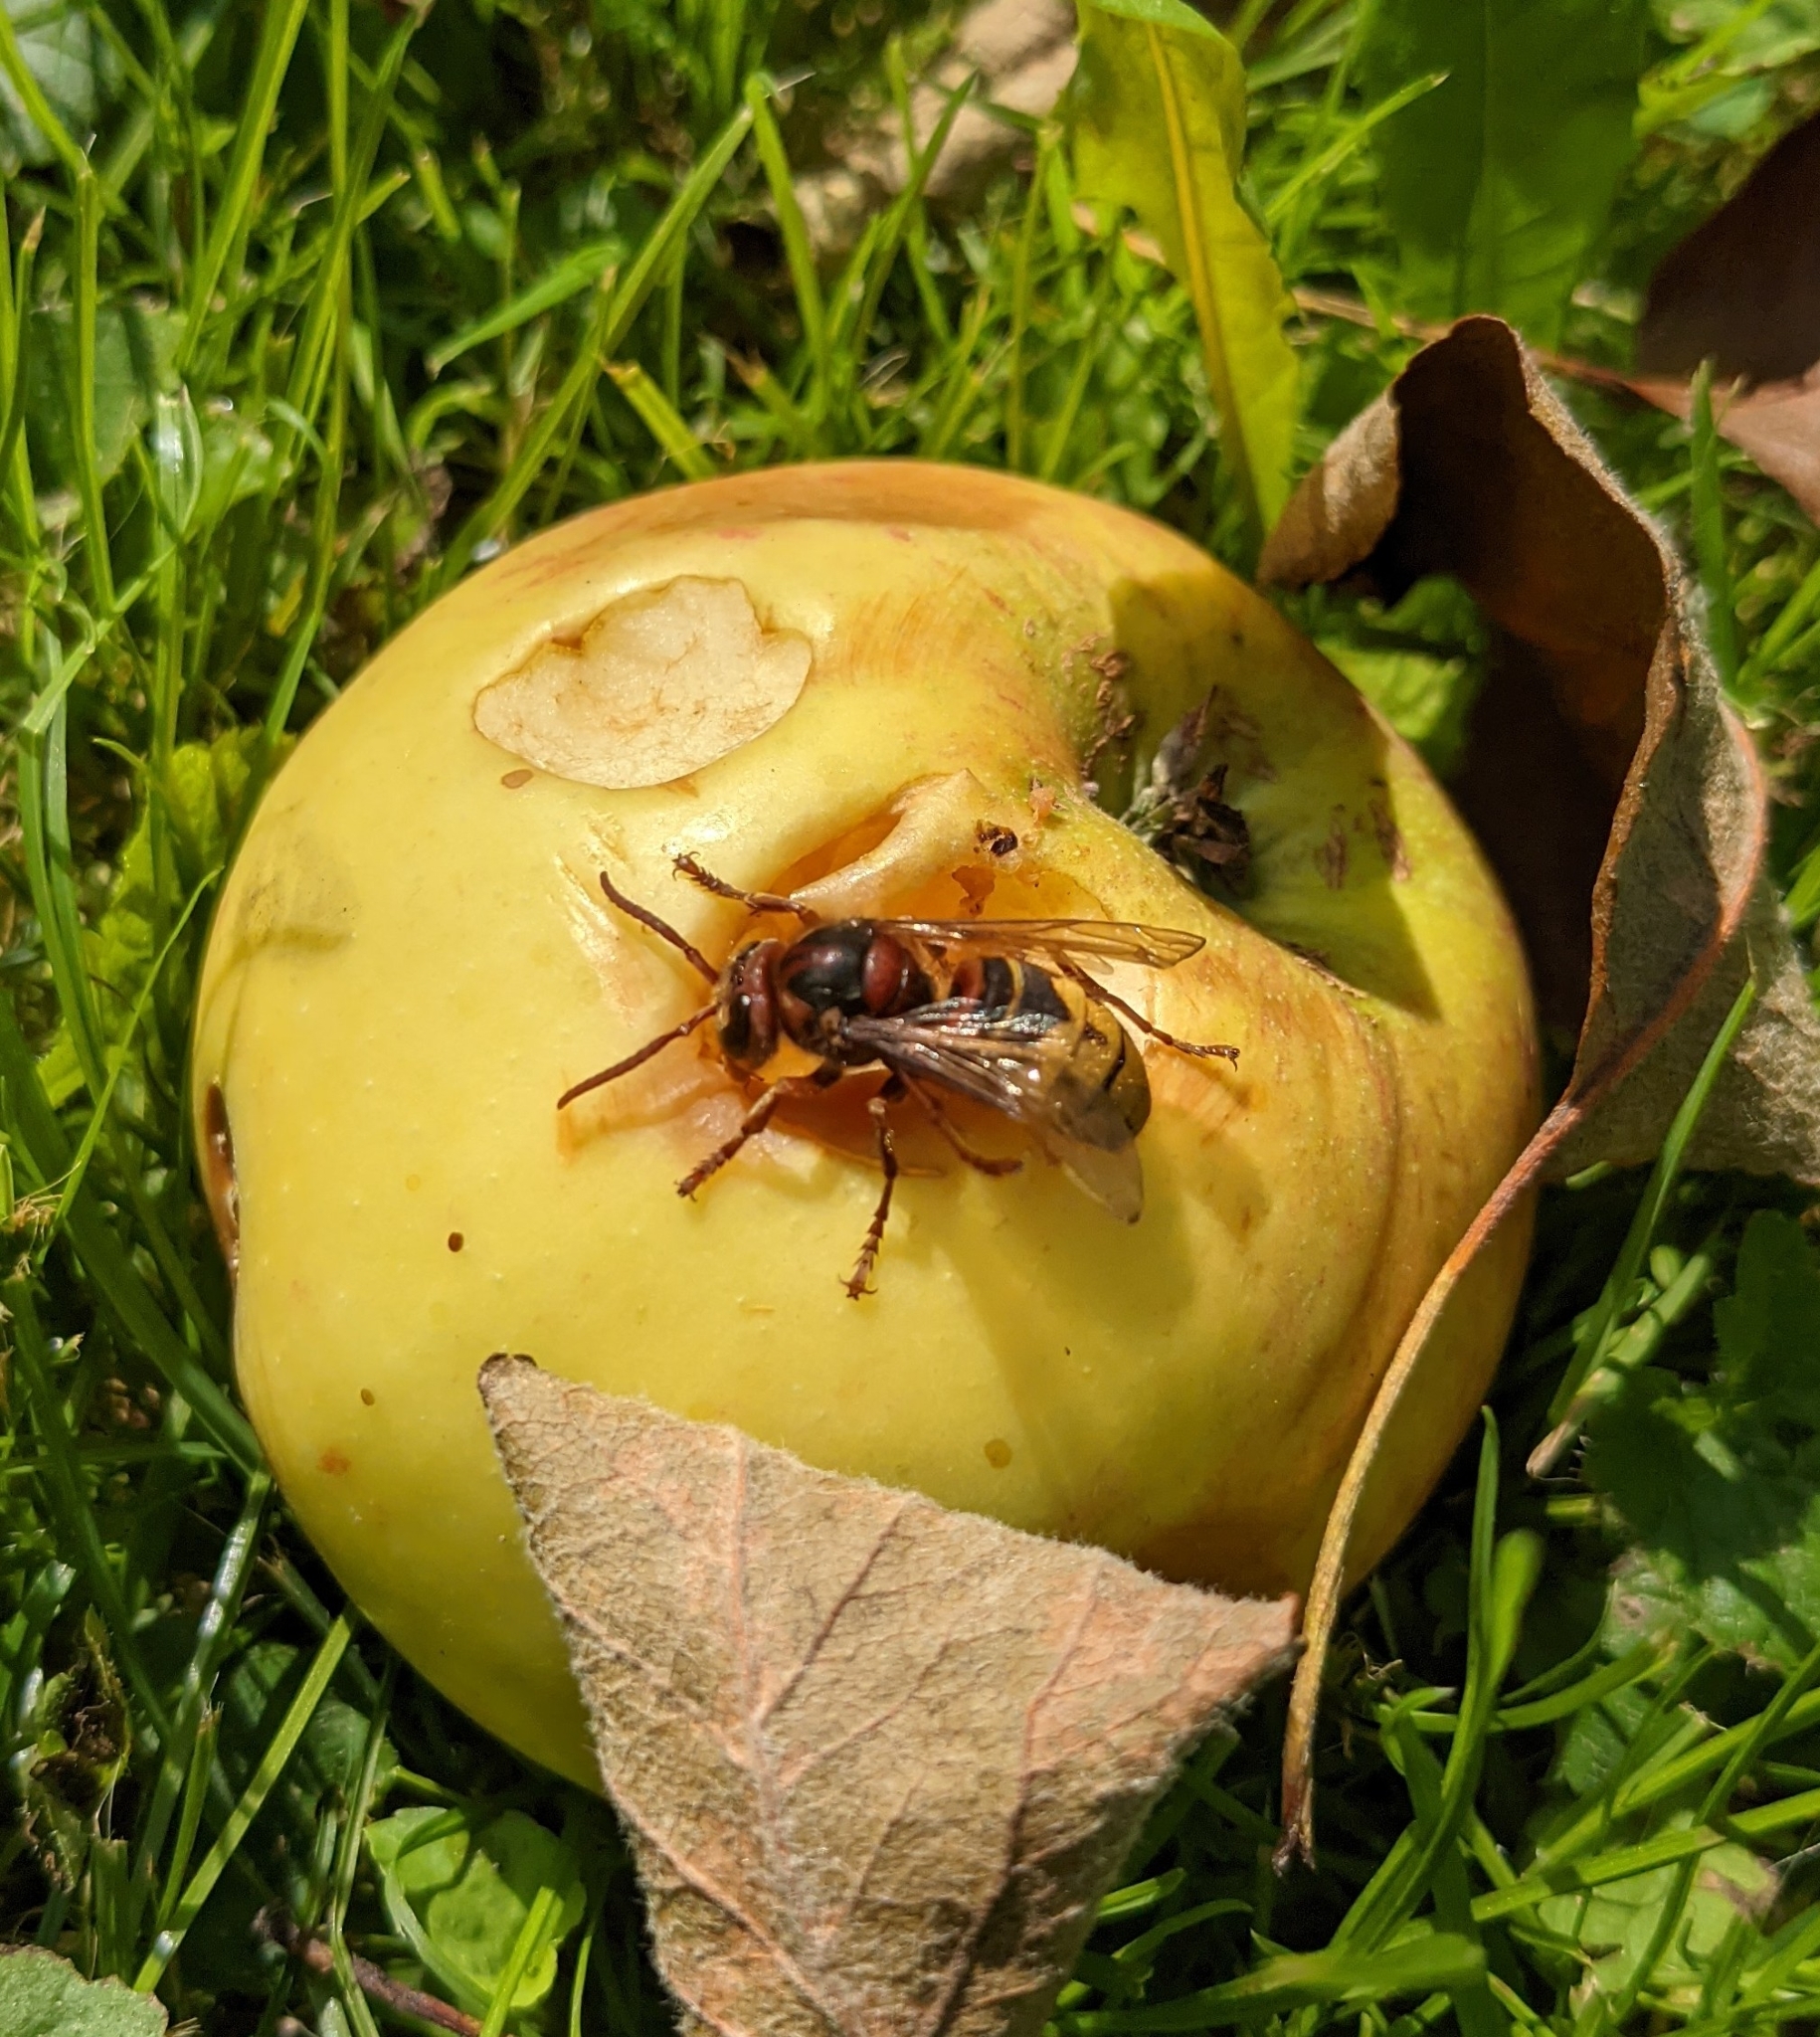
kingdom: Animalia
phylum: Arthropoda
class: Insecta
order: Hymenoptera
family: Vespidae
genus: Vespa
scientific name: Vespa crabro
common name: Hornet
